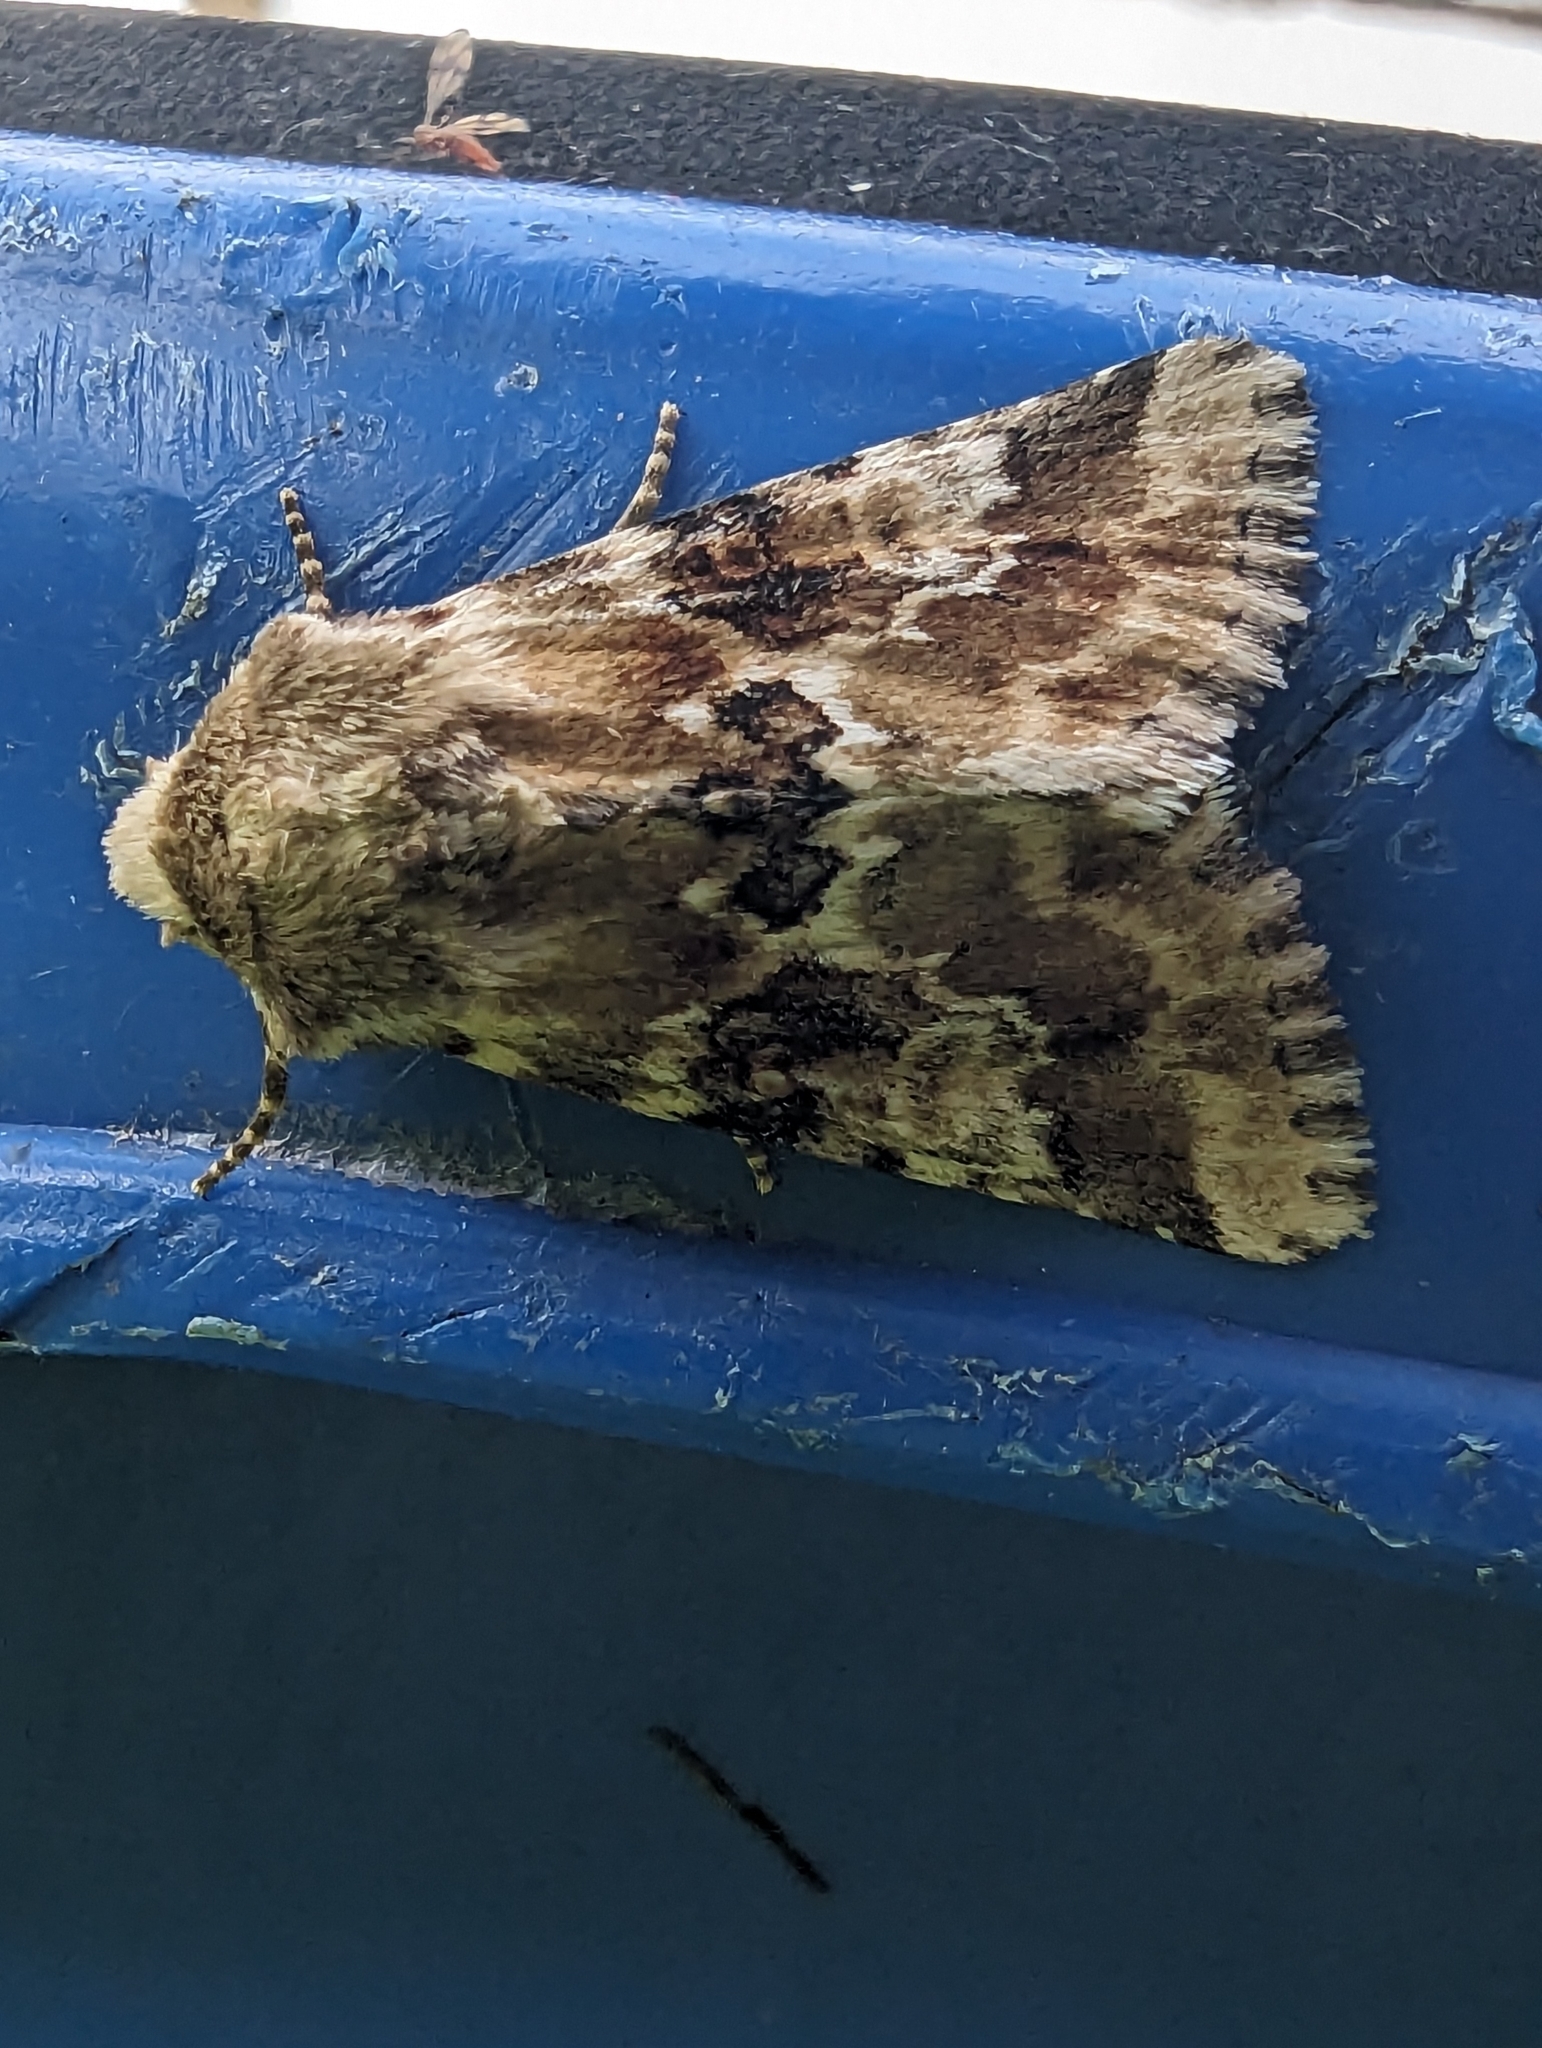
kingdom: Animalia
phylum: Arthropoda
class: Insecta
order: Lepidoptera
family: Noctuidae
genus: Eremobia
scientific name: Eremobia ochroleuca
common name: Dusky sallow
